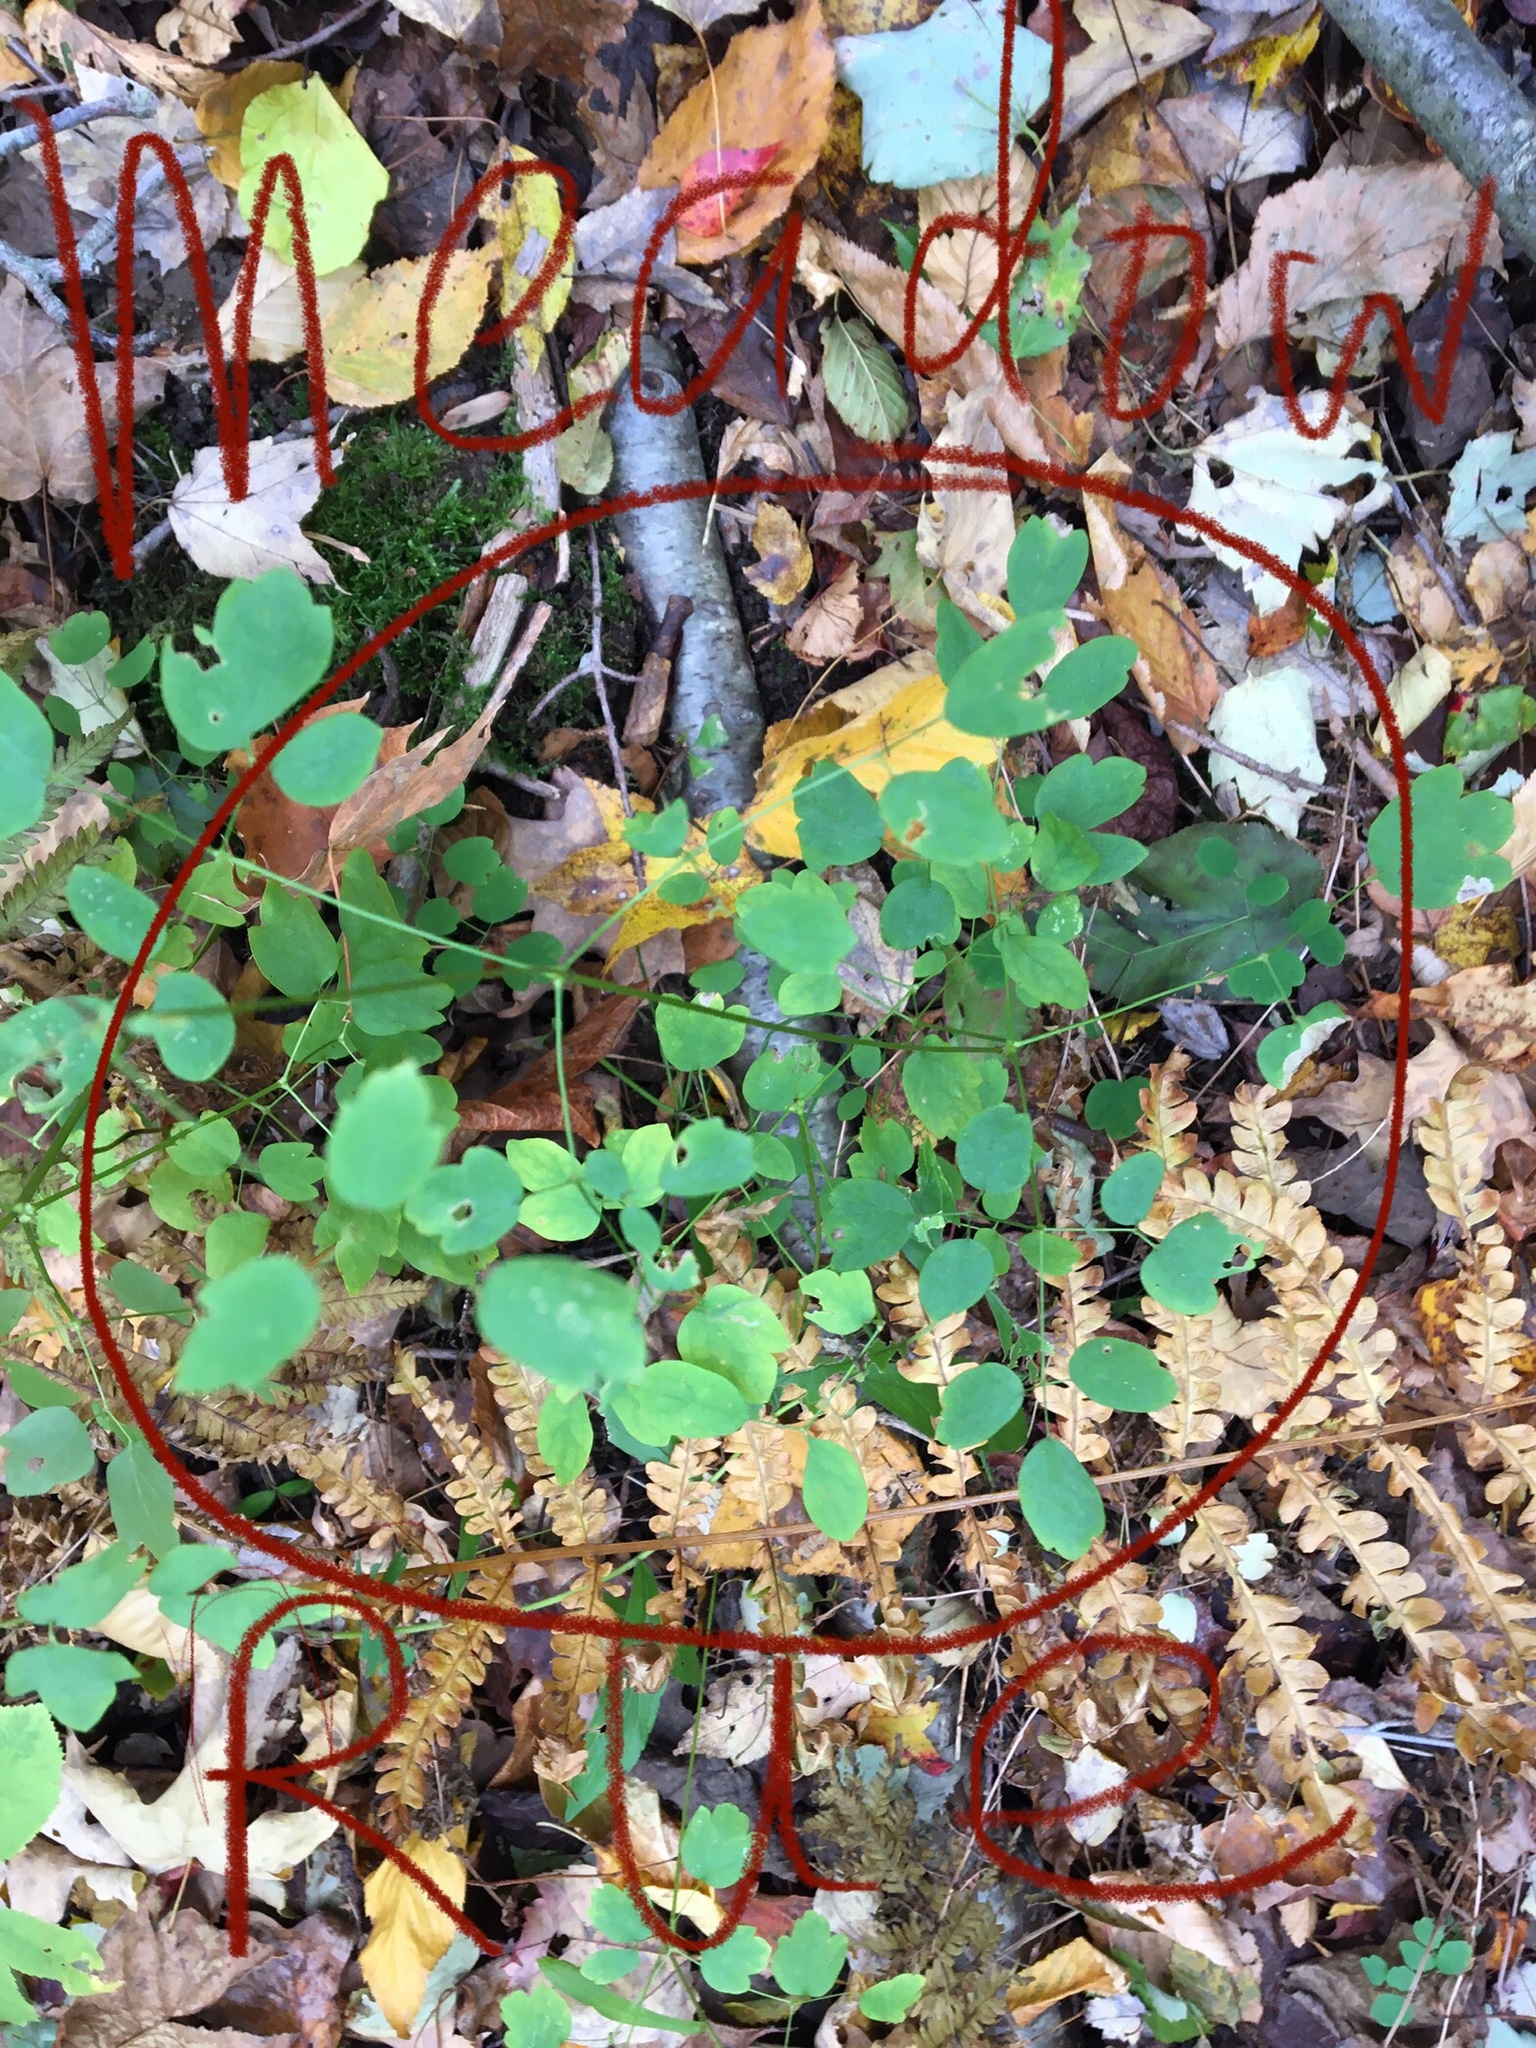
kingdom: Plantae
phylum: Tracheophyta
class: Magnoliopsida
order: Ranunculales
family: Ranunculaceae
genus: Thalictrum
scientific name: Thalictrum pubescens
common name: King-of-the-meadow
